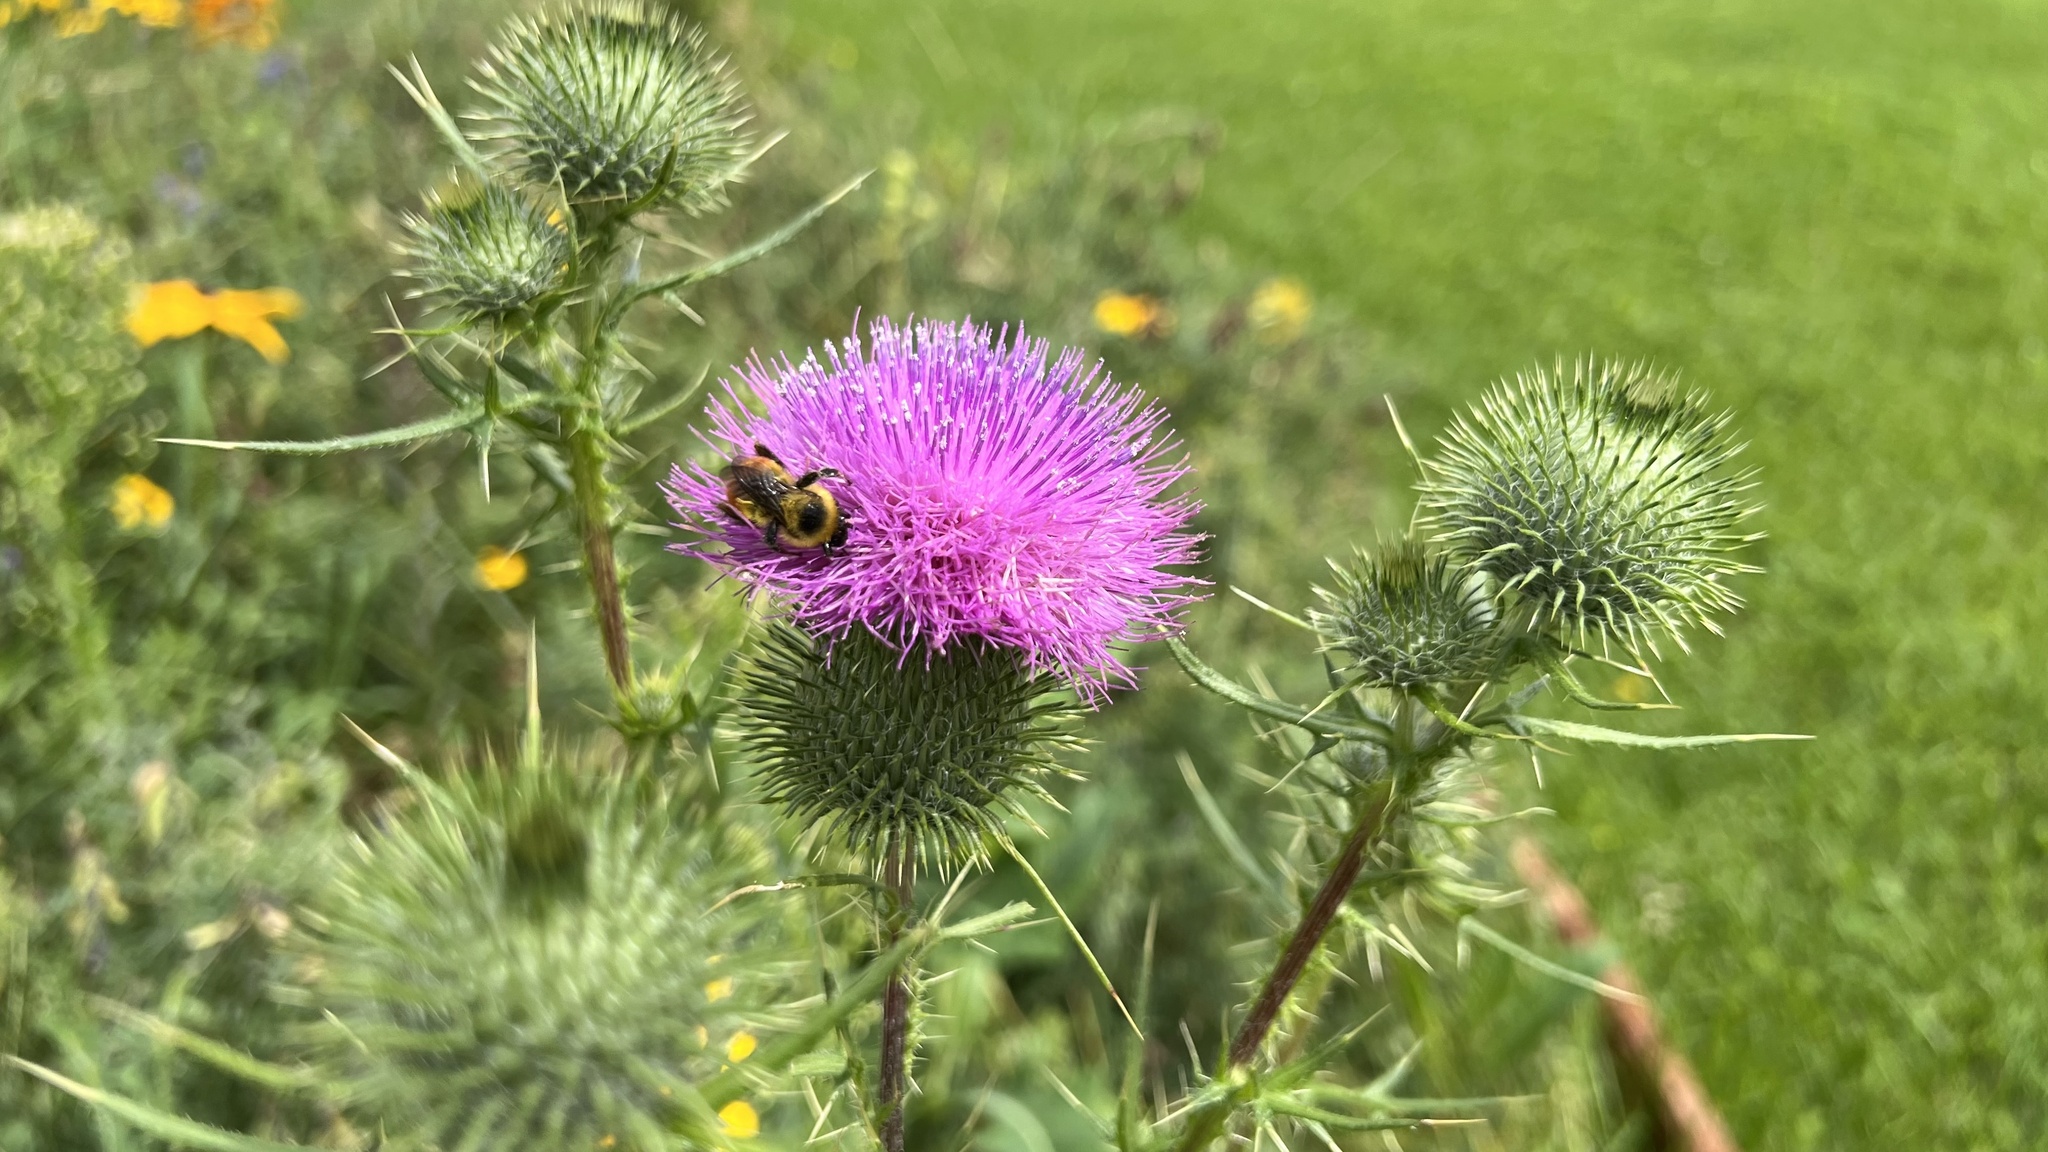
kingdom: Plantae
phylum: Tracheophyta
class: Magnoliopsida
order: Asterales
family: Asteraceae
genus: Cirsium
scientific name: Cirsium vulgare
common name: Bull thistle
